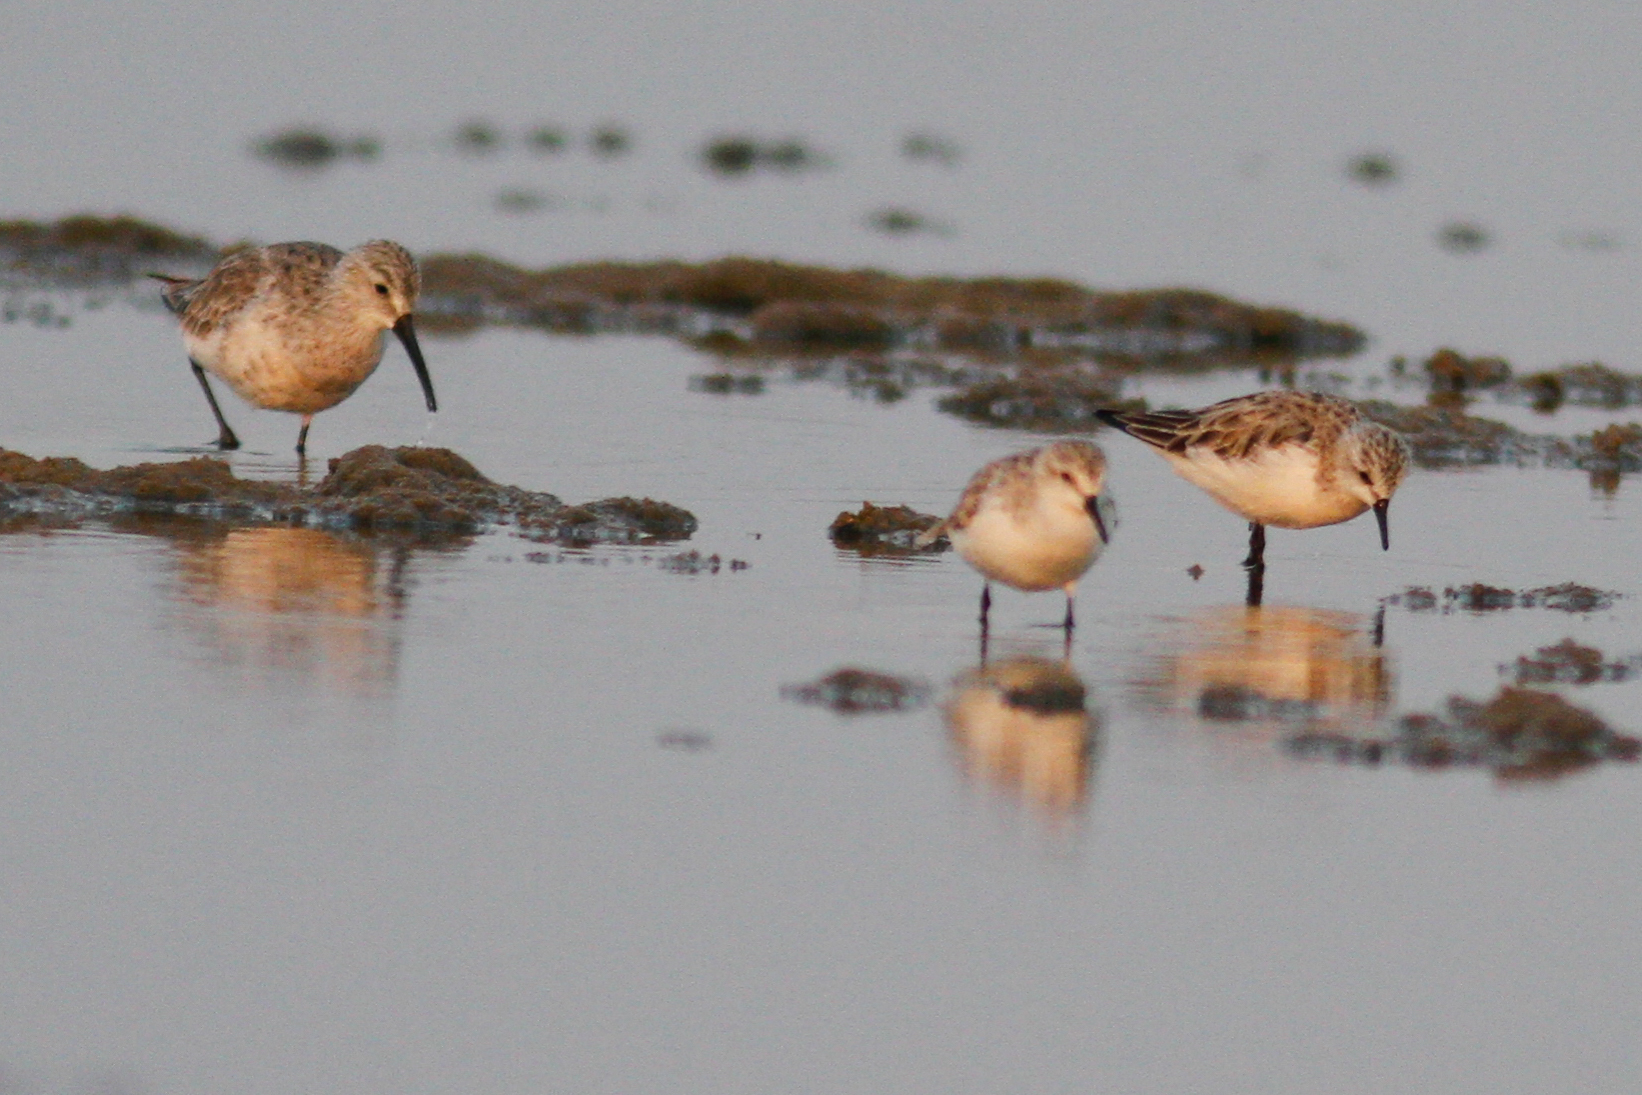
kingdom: Animalia
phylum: Chordata
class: Aves
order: Charadriiformes
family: Scolopacidae
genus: Calidris
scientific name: Calidris ferruginea
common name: Curlew sandpiper
